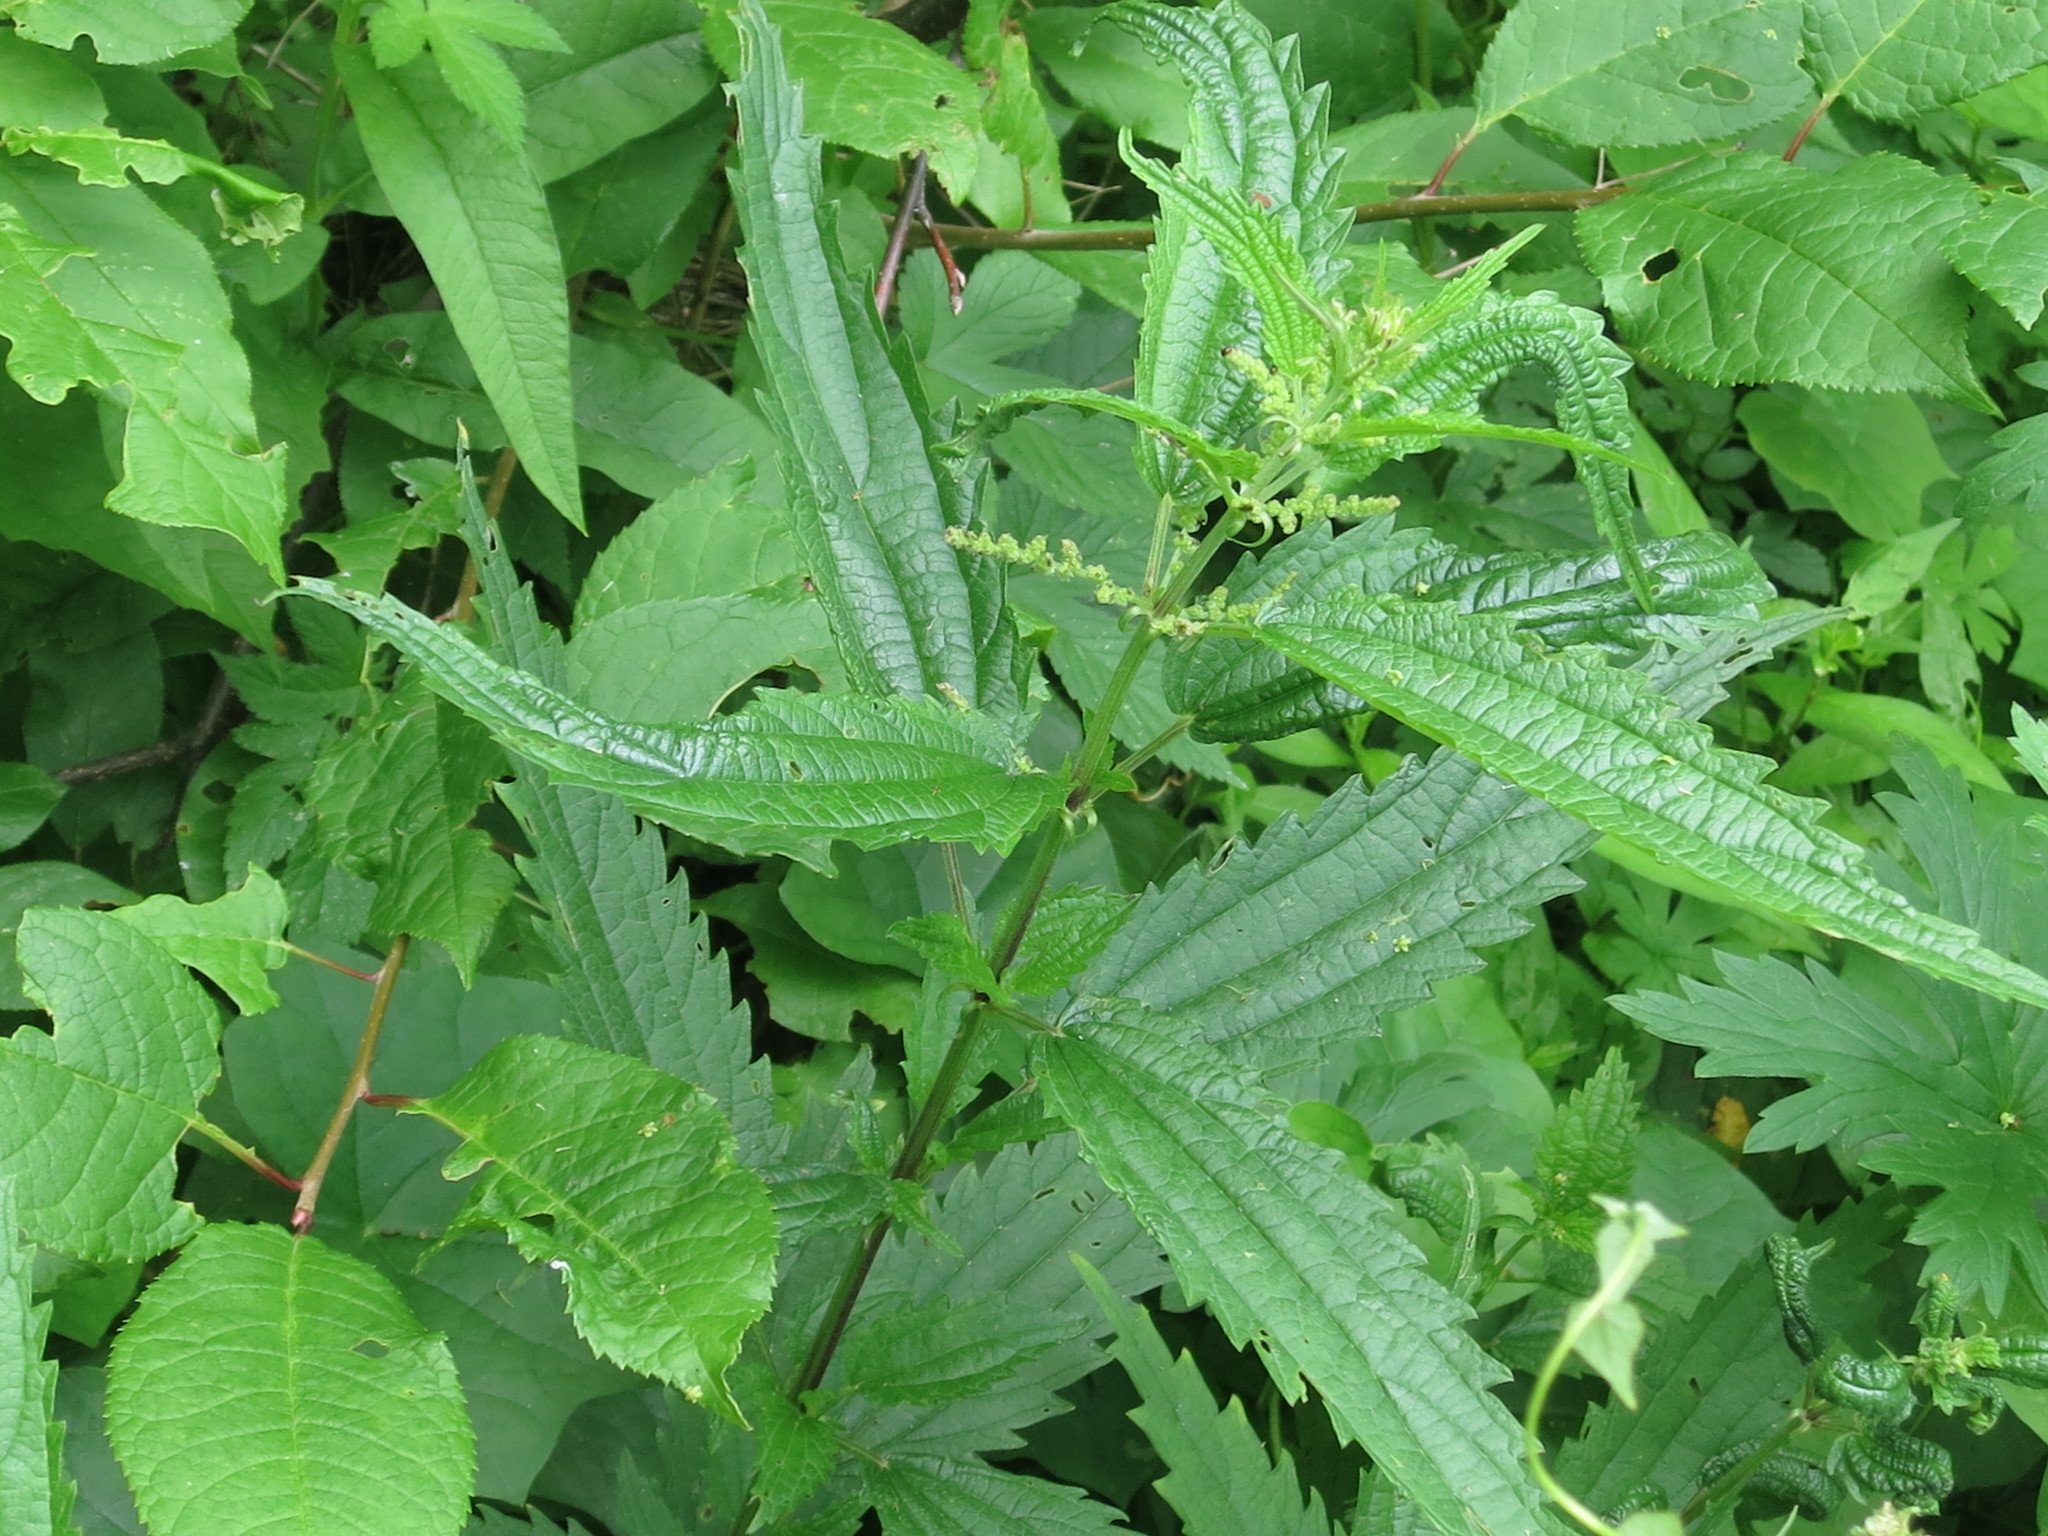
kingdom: Plantae
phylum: Tracheophyta
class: Magnoliopsida
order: Rosales
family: Urticaceae
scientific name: Urticaceae
